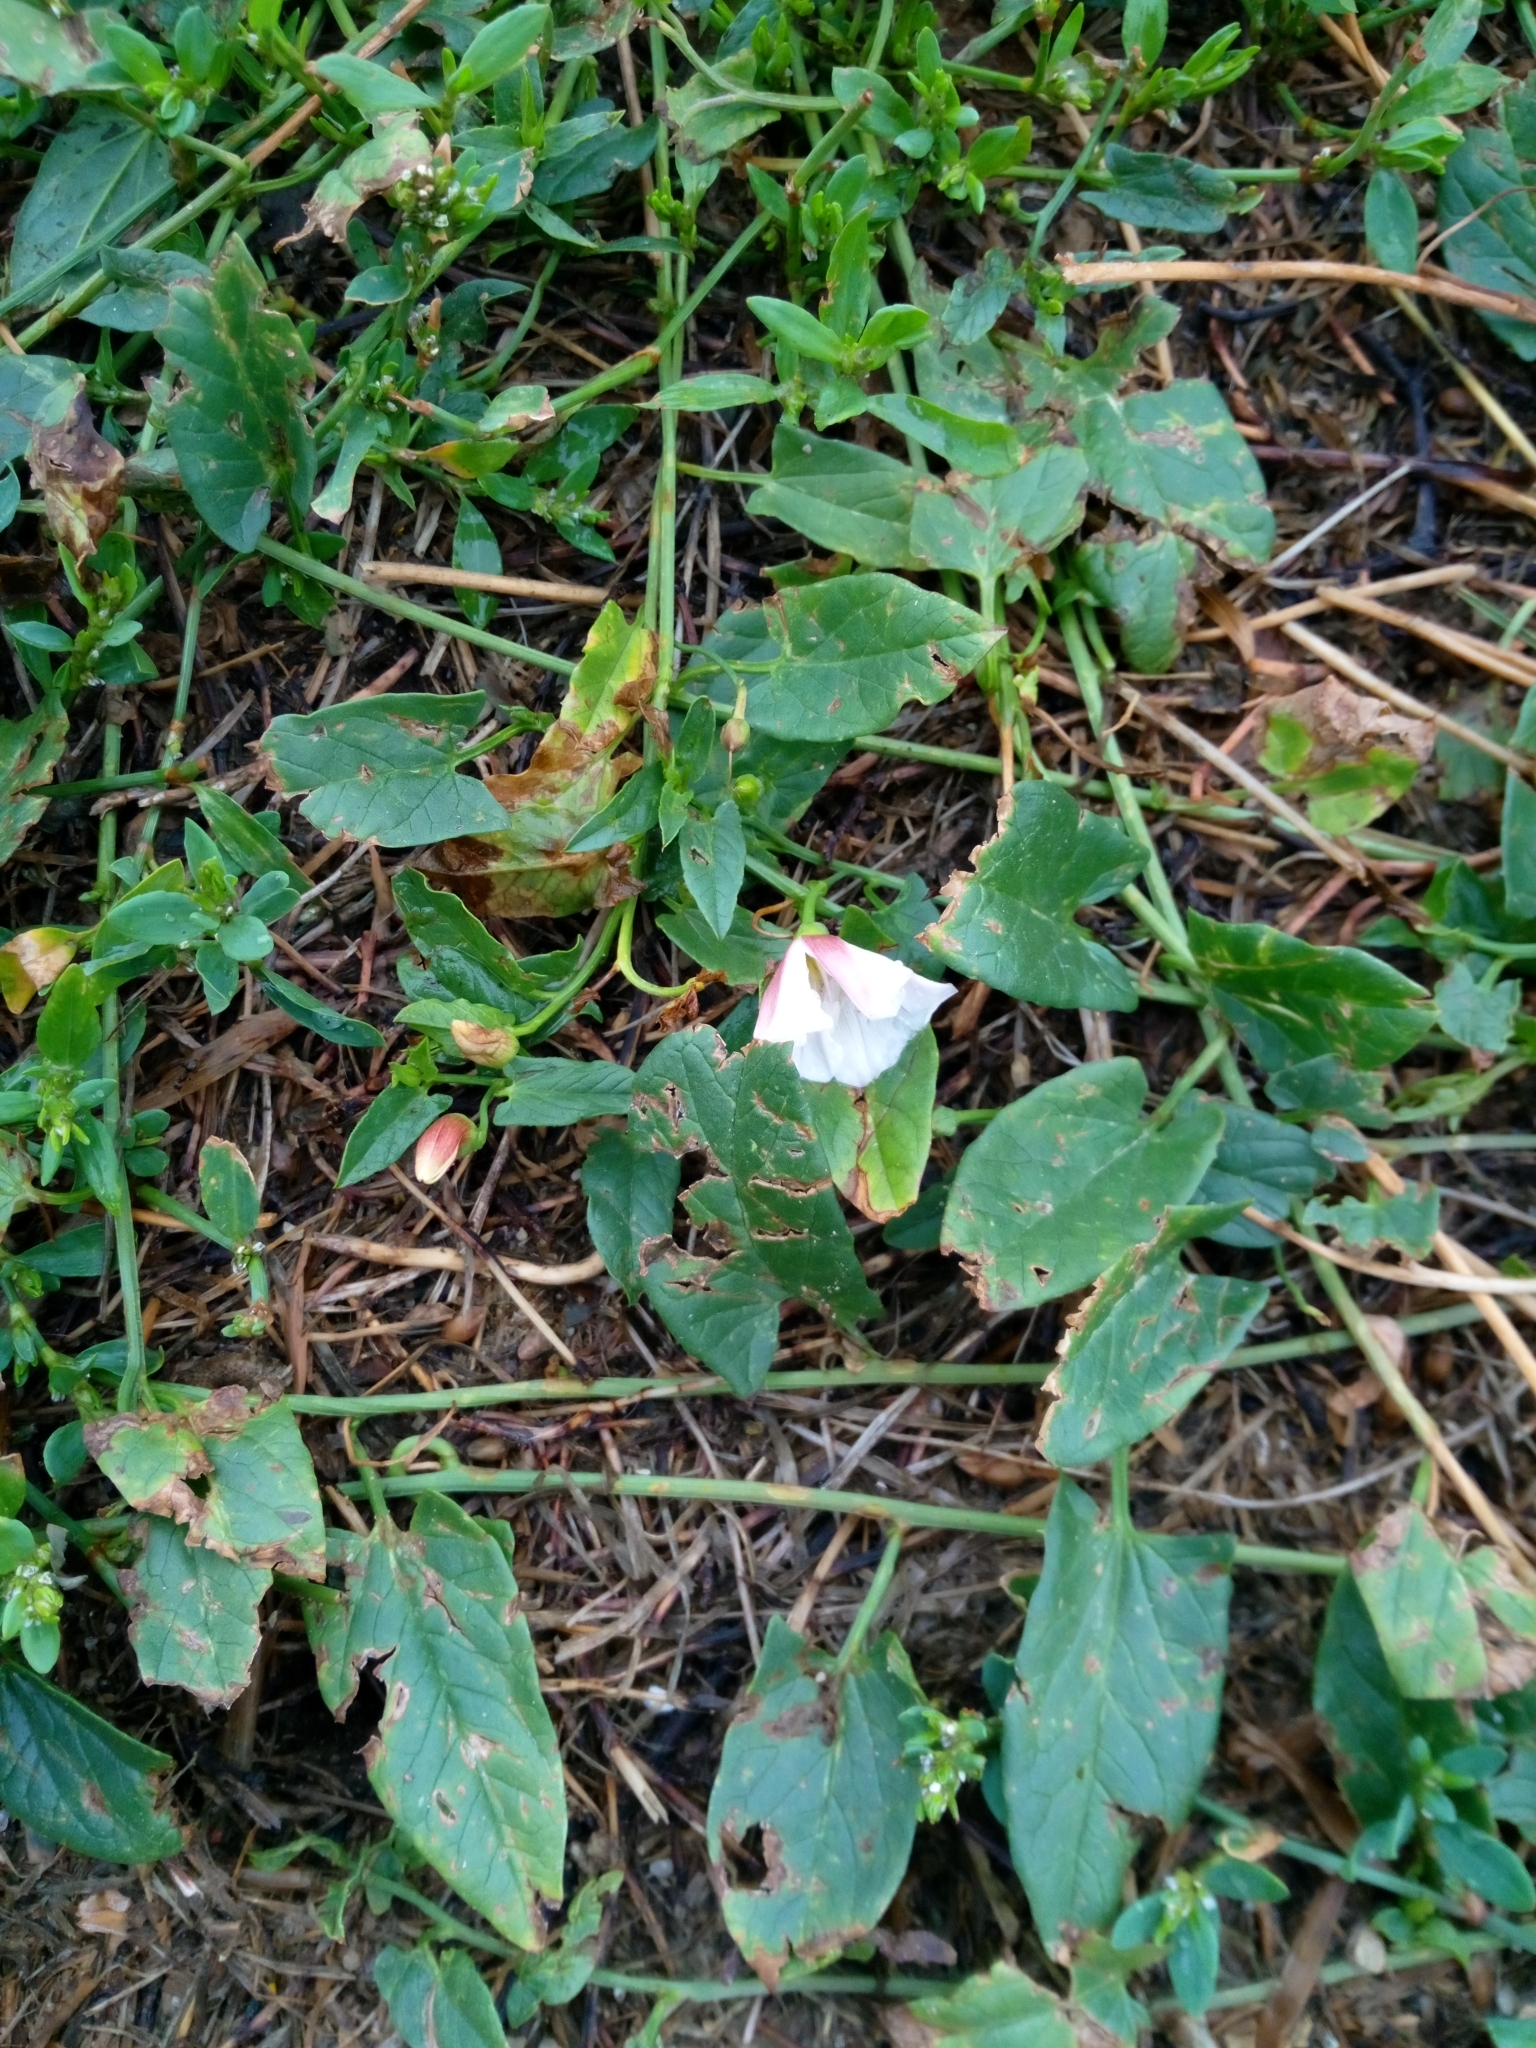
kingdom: Plantae
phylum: Tracheophyta
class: Magnoliopsida
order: Solanales
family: Convolvulaceae
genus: Convolvulus
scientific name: Convolvulus arvensis
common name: Field bindweed
